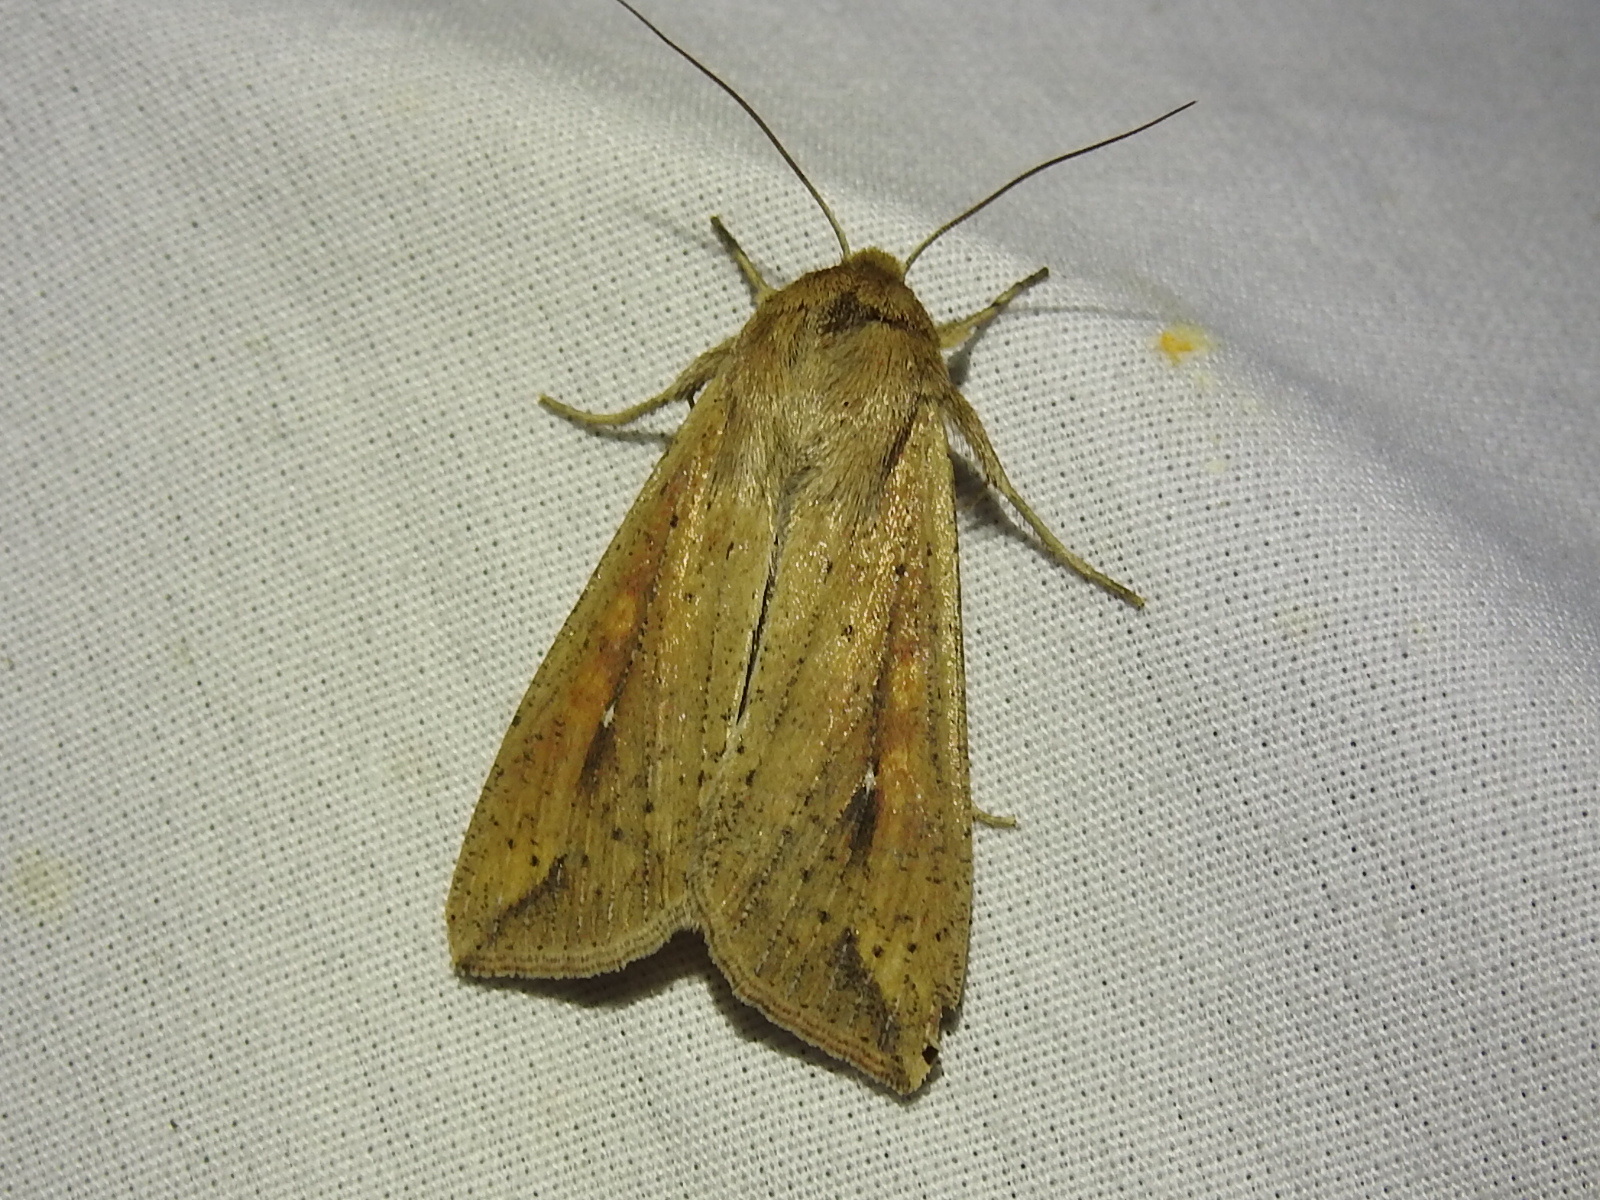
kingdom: Animalia
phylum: Arthropoda
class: Insecta
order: Lepidoptera
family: Noctuidae
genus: Mythimna
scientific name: Mythimna unipuncta
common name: White-speck
